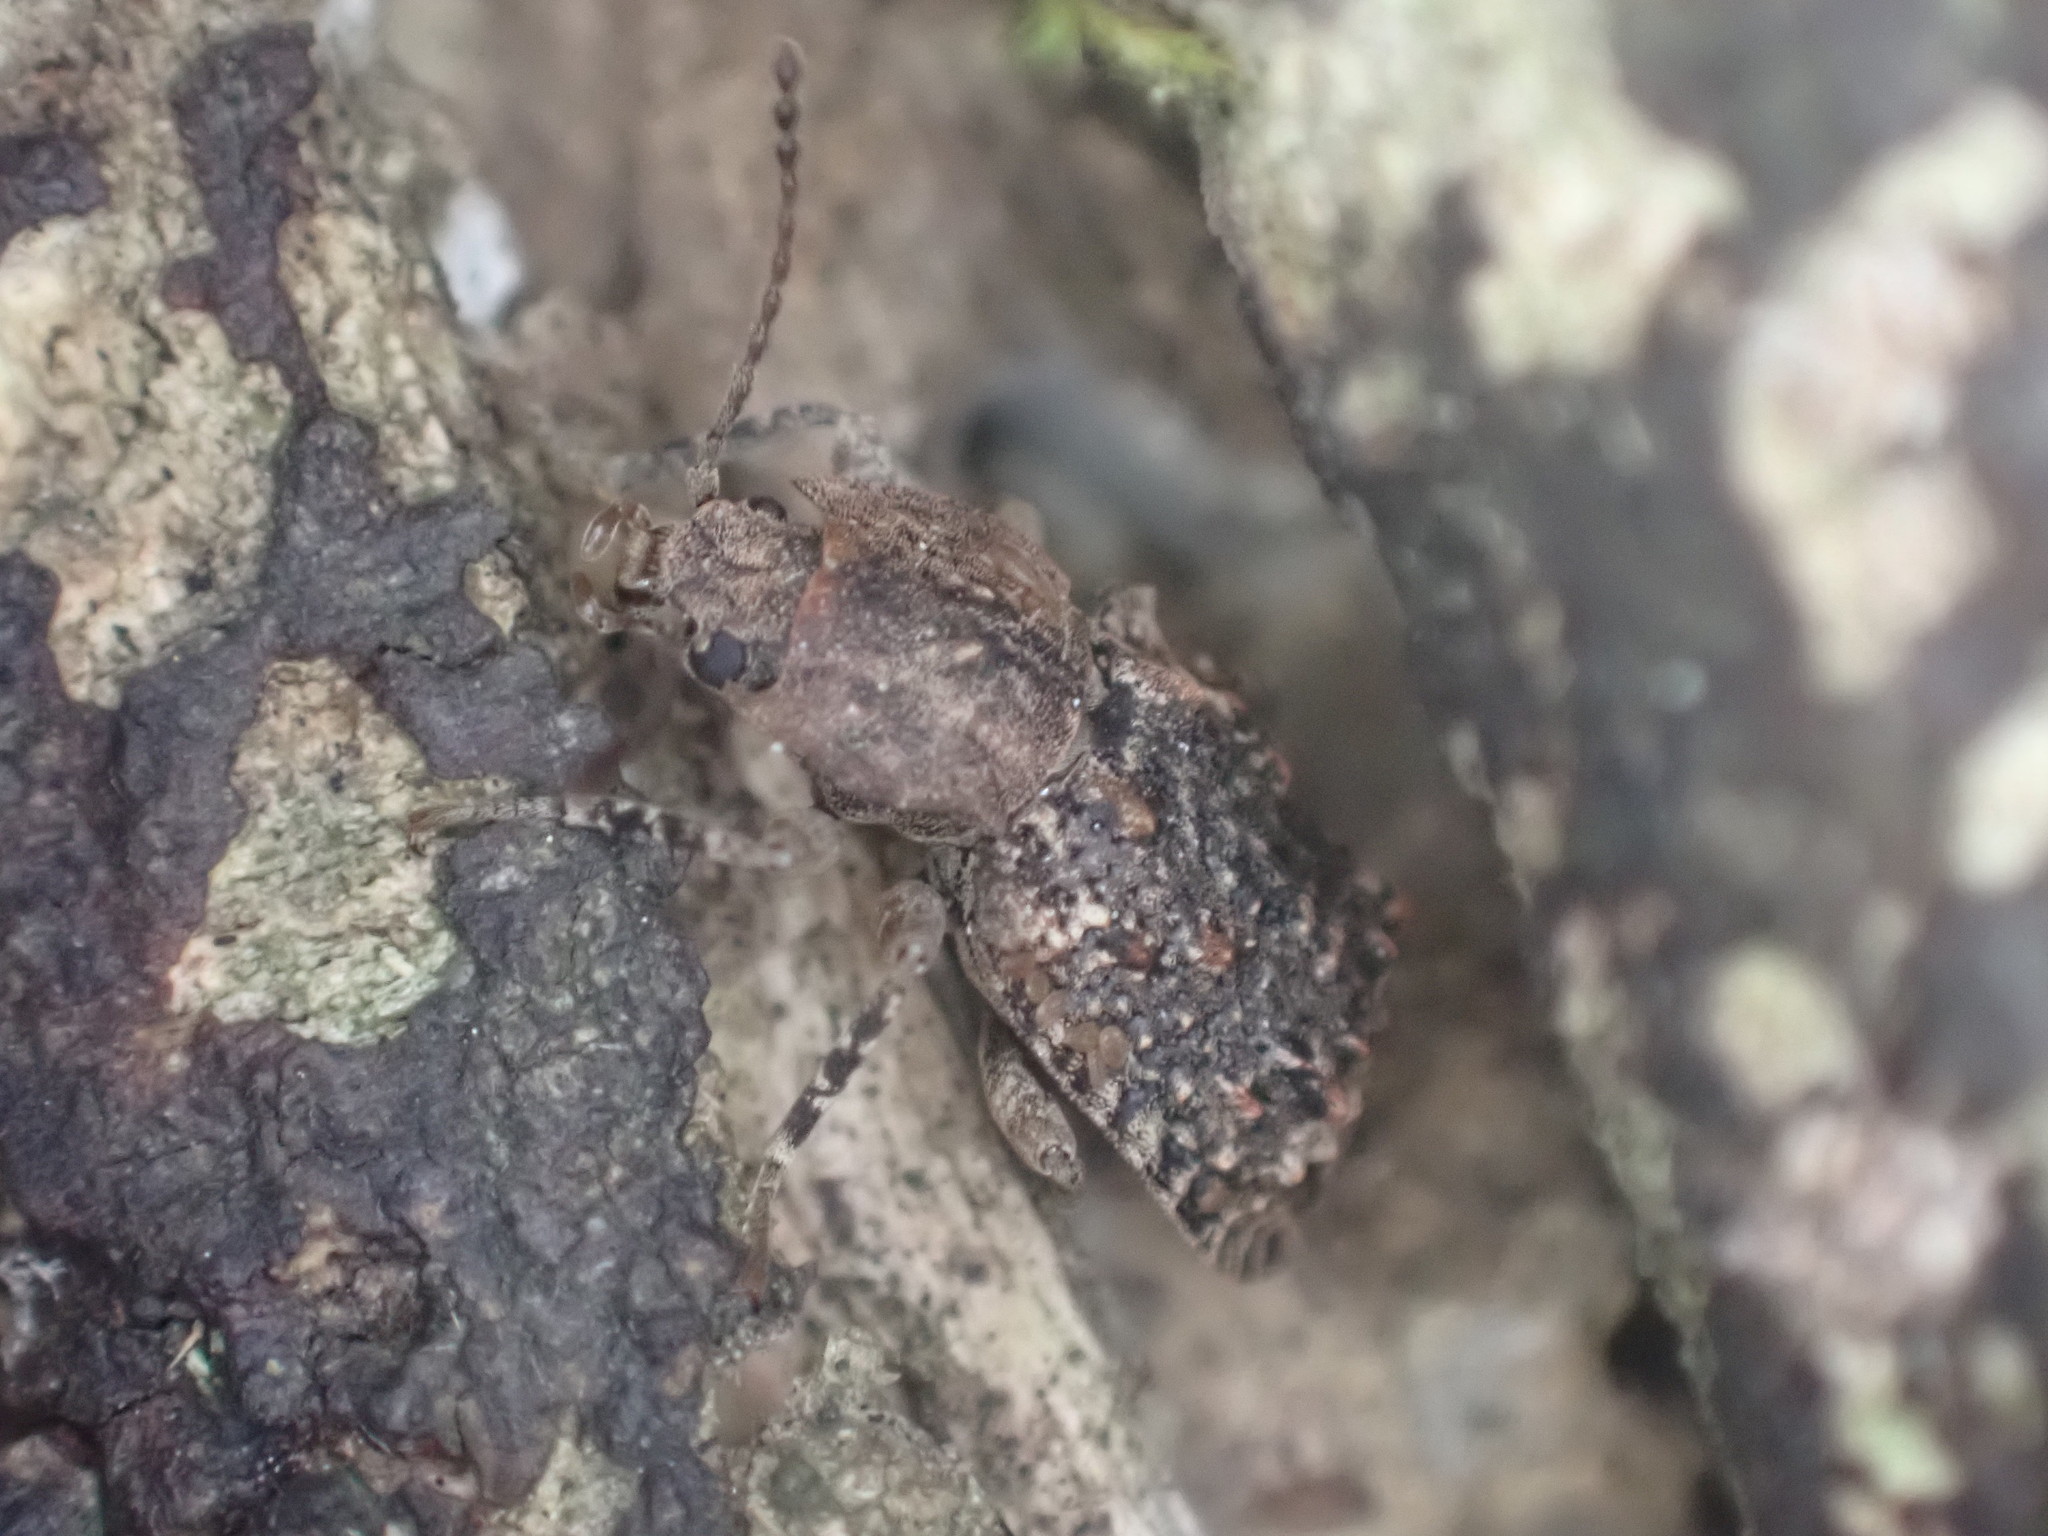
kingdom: Animalia
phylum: Arthropoda
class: Insecta
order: Coleoptera
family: Ulodidae
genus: Syrphetodes
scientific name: Syrphetodes marginatus
